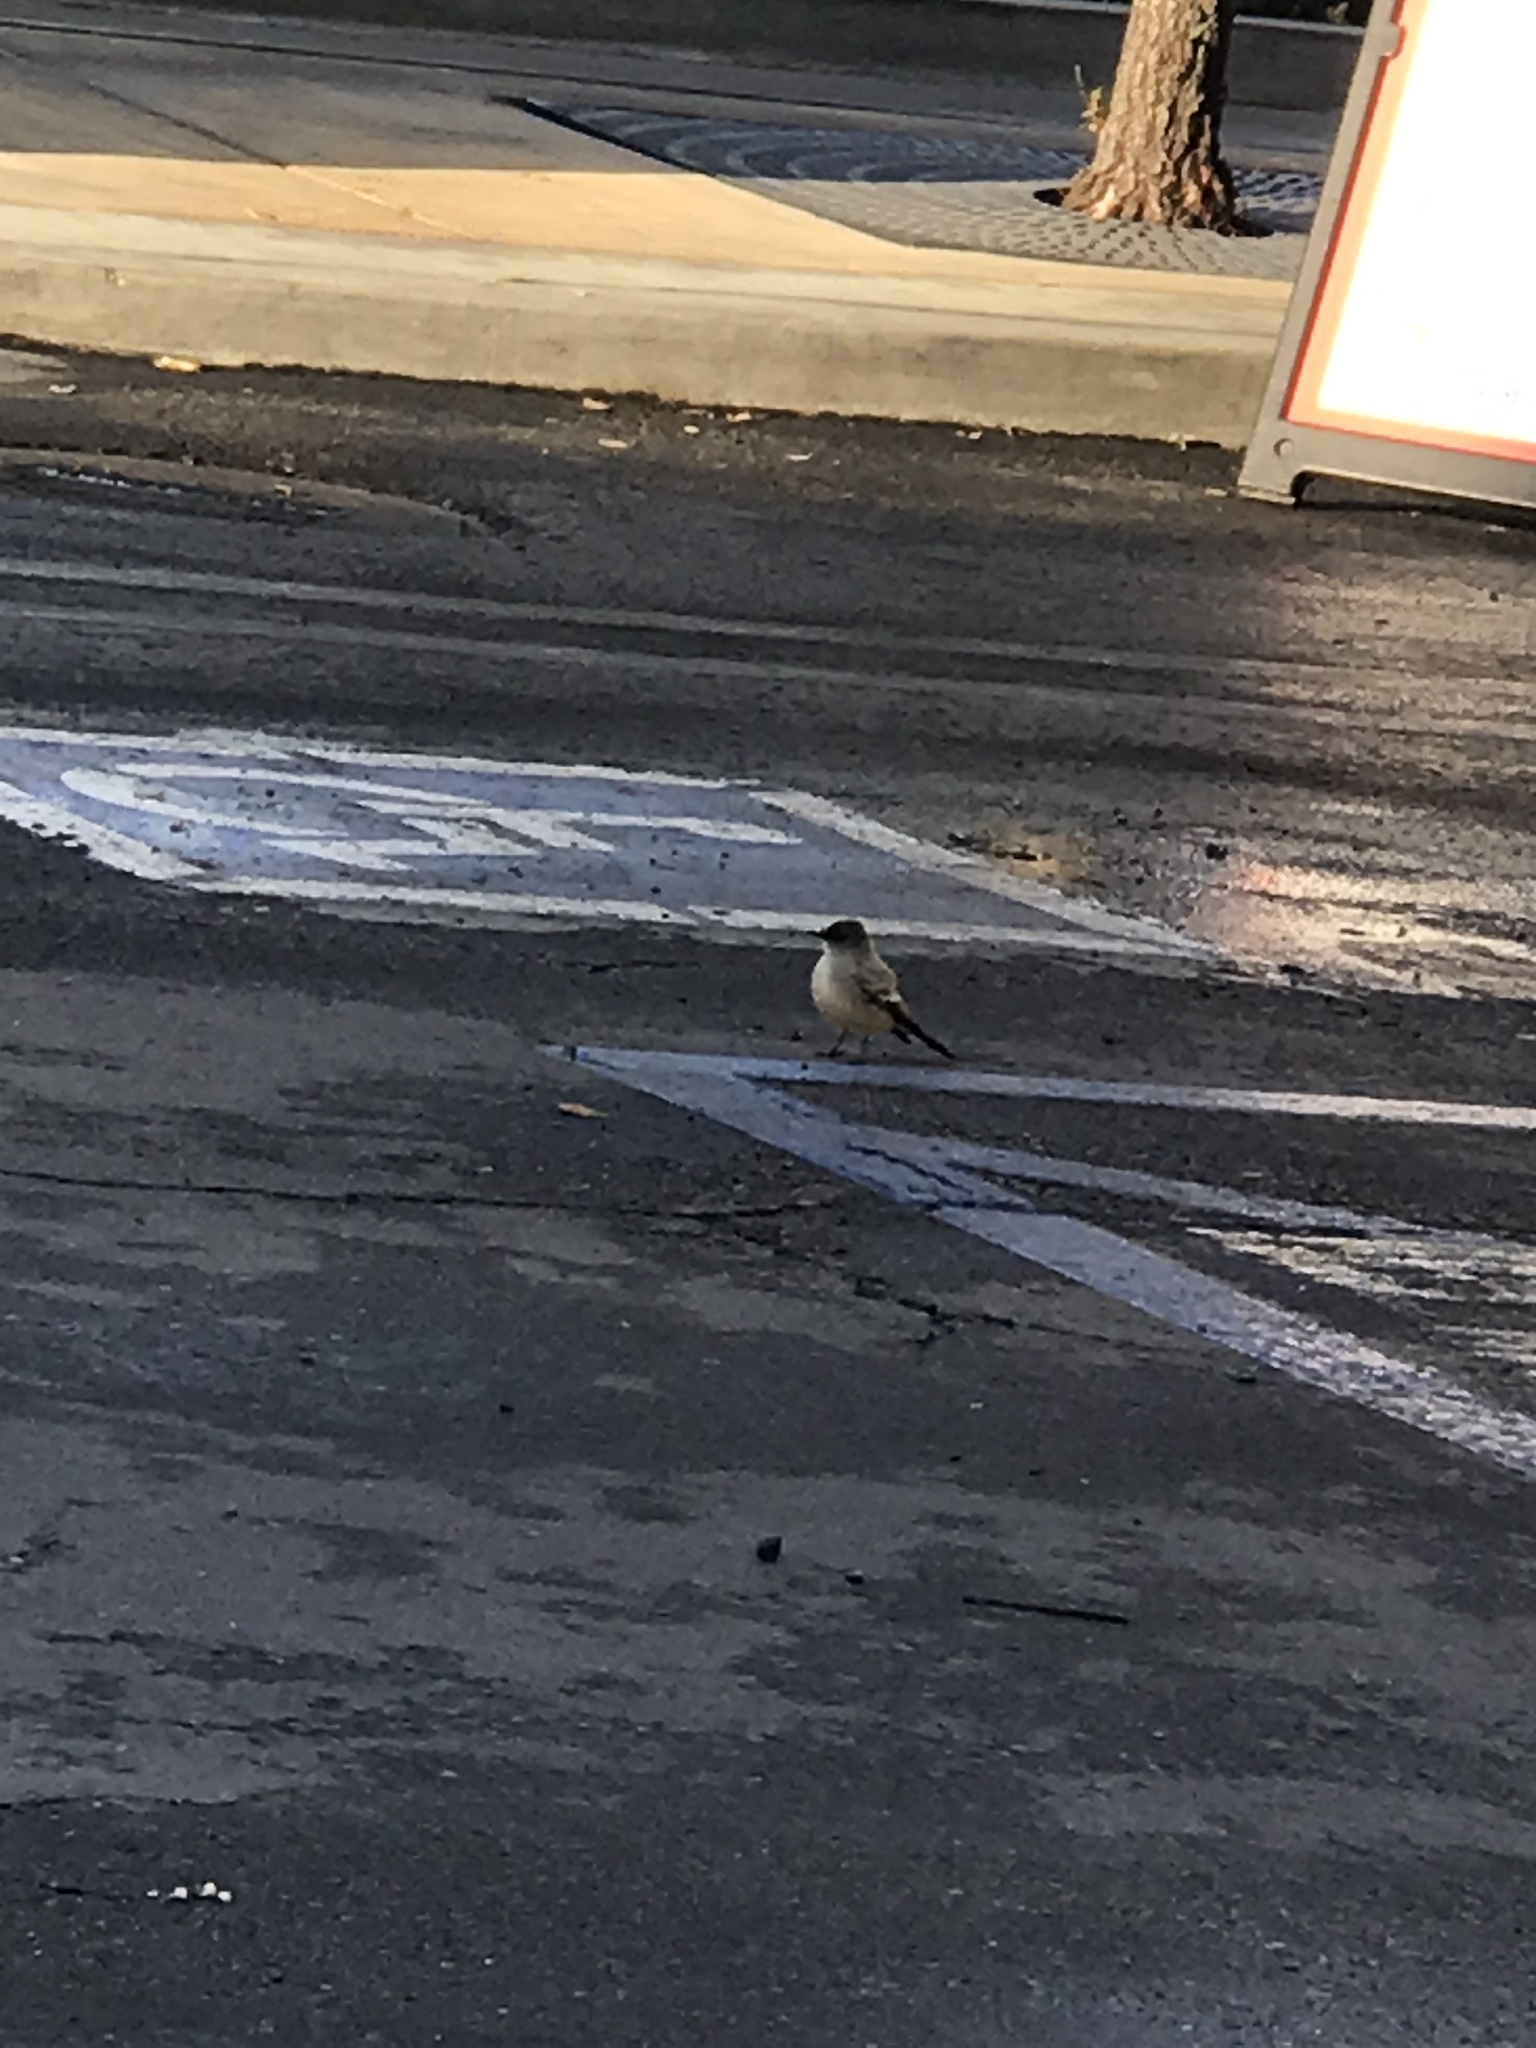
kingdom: Animalia
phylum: Chordata
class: Aves
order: Passeriformes
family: Tyrannidae
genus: Sayornis
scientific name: Sayornis saya
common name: Say's phoebe
